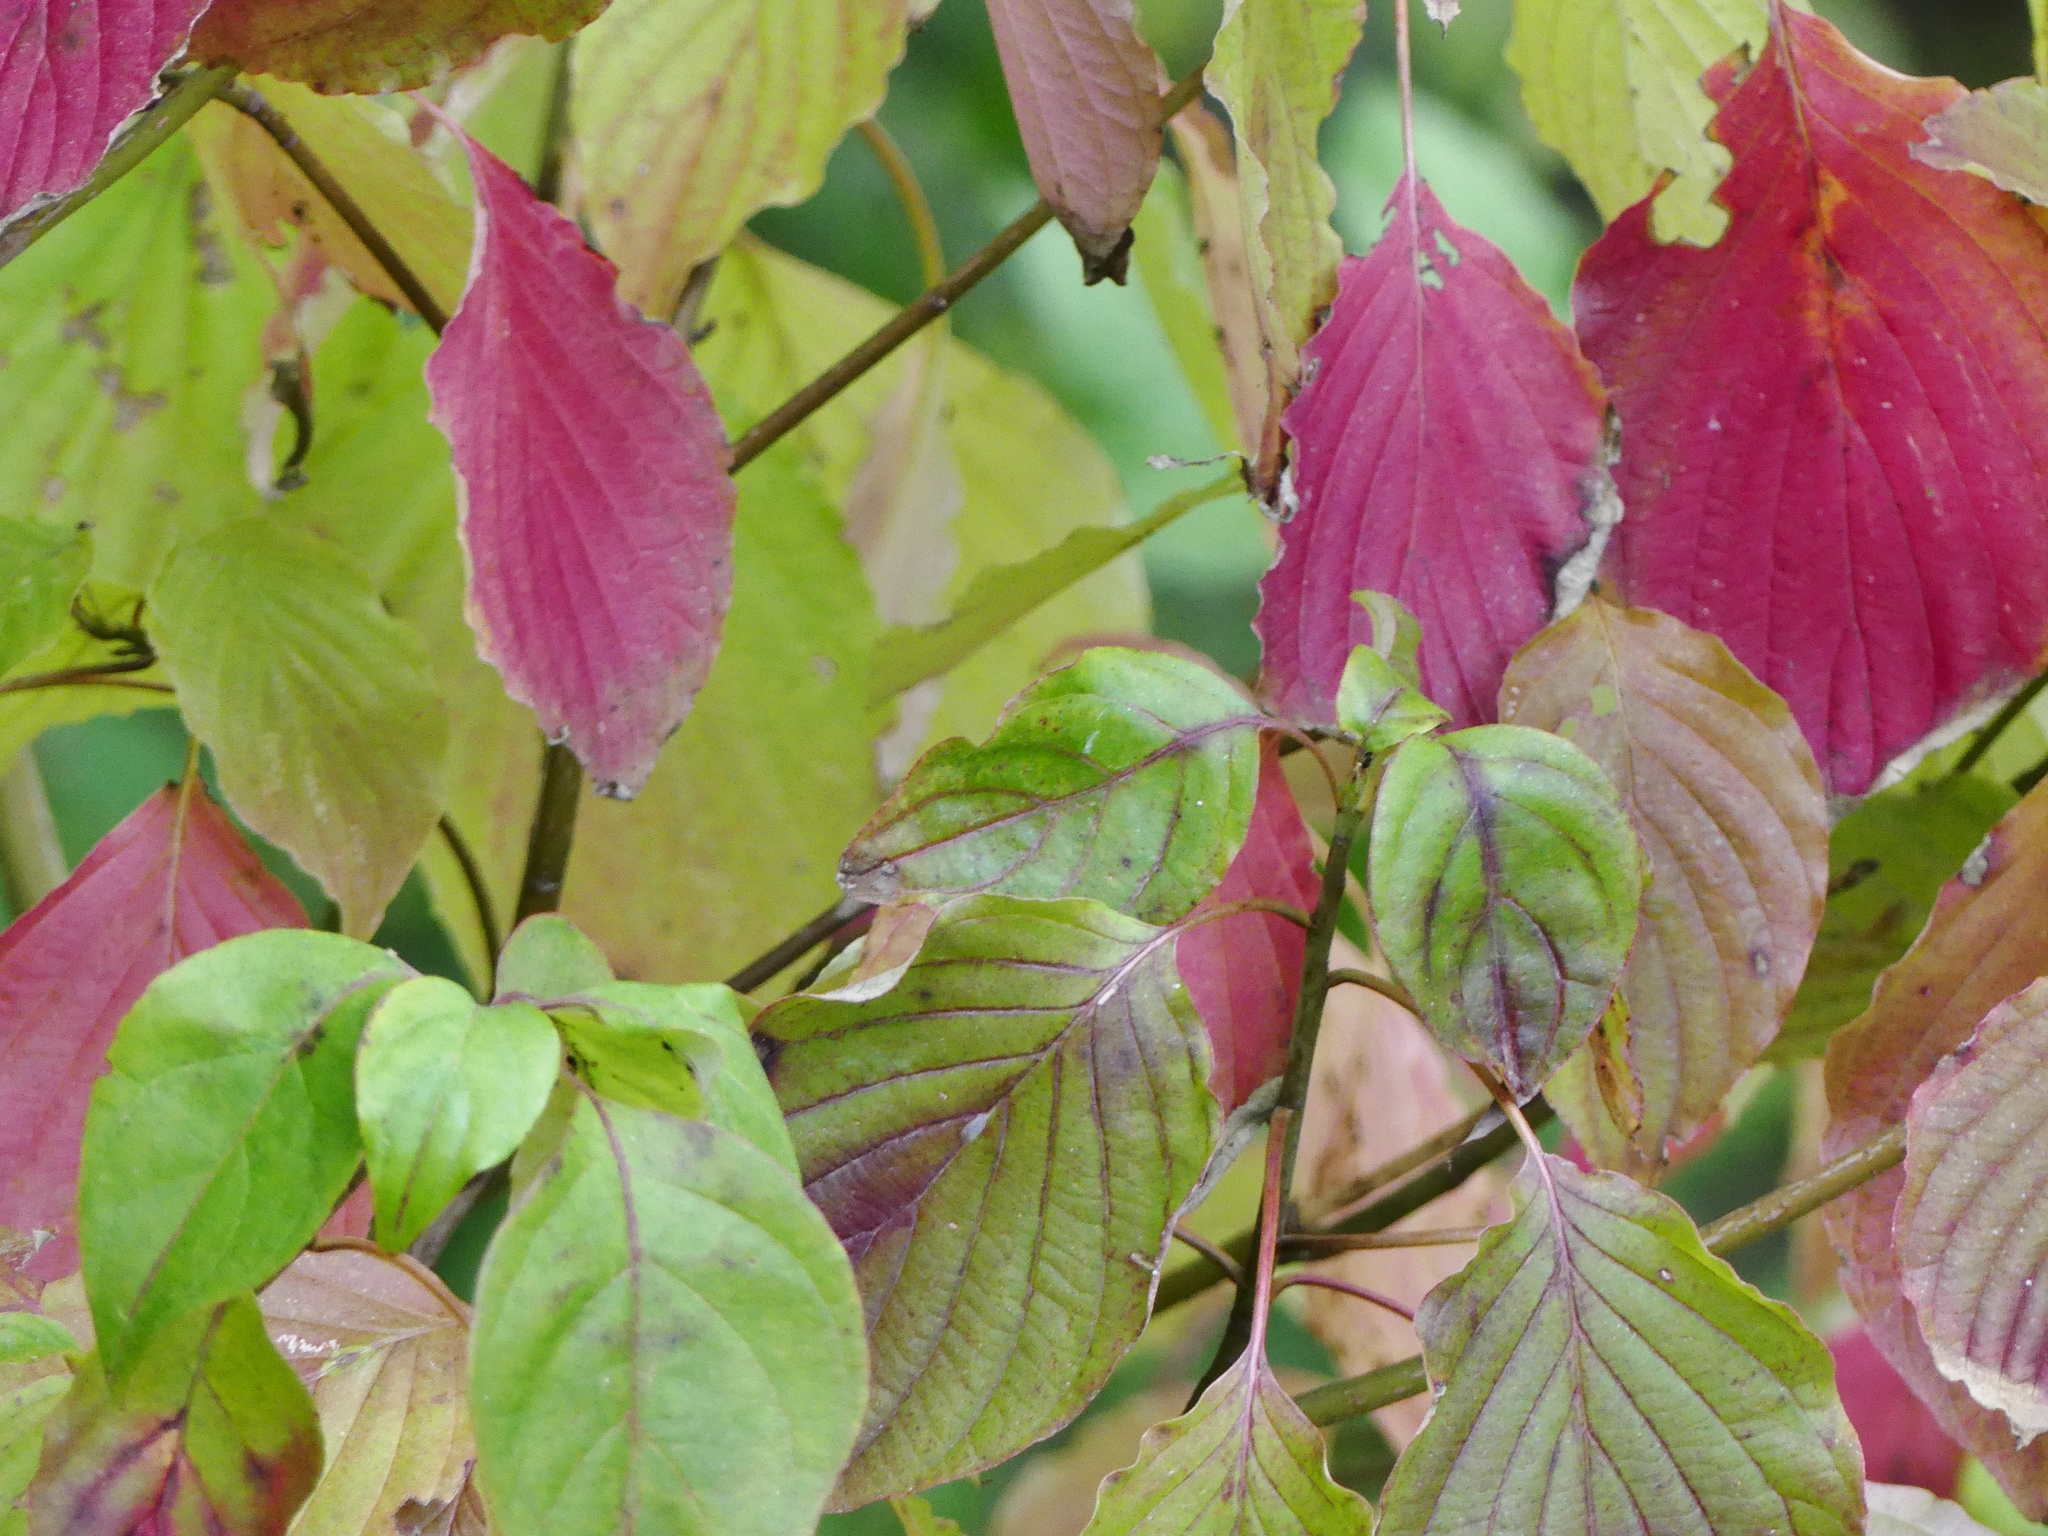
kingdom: Plantae
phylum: Tracheophyta
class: Magnoliopsida
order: Cornales
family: Cornaceae
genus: Cornus
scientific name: Cornus alternifolia
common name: Pagoda dogwood
